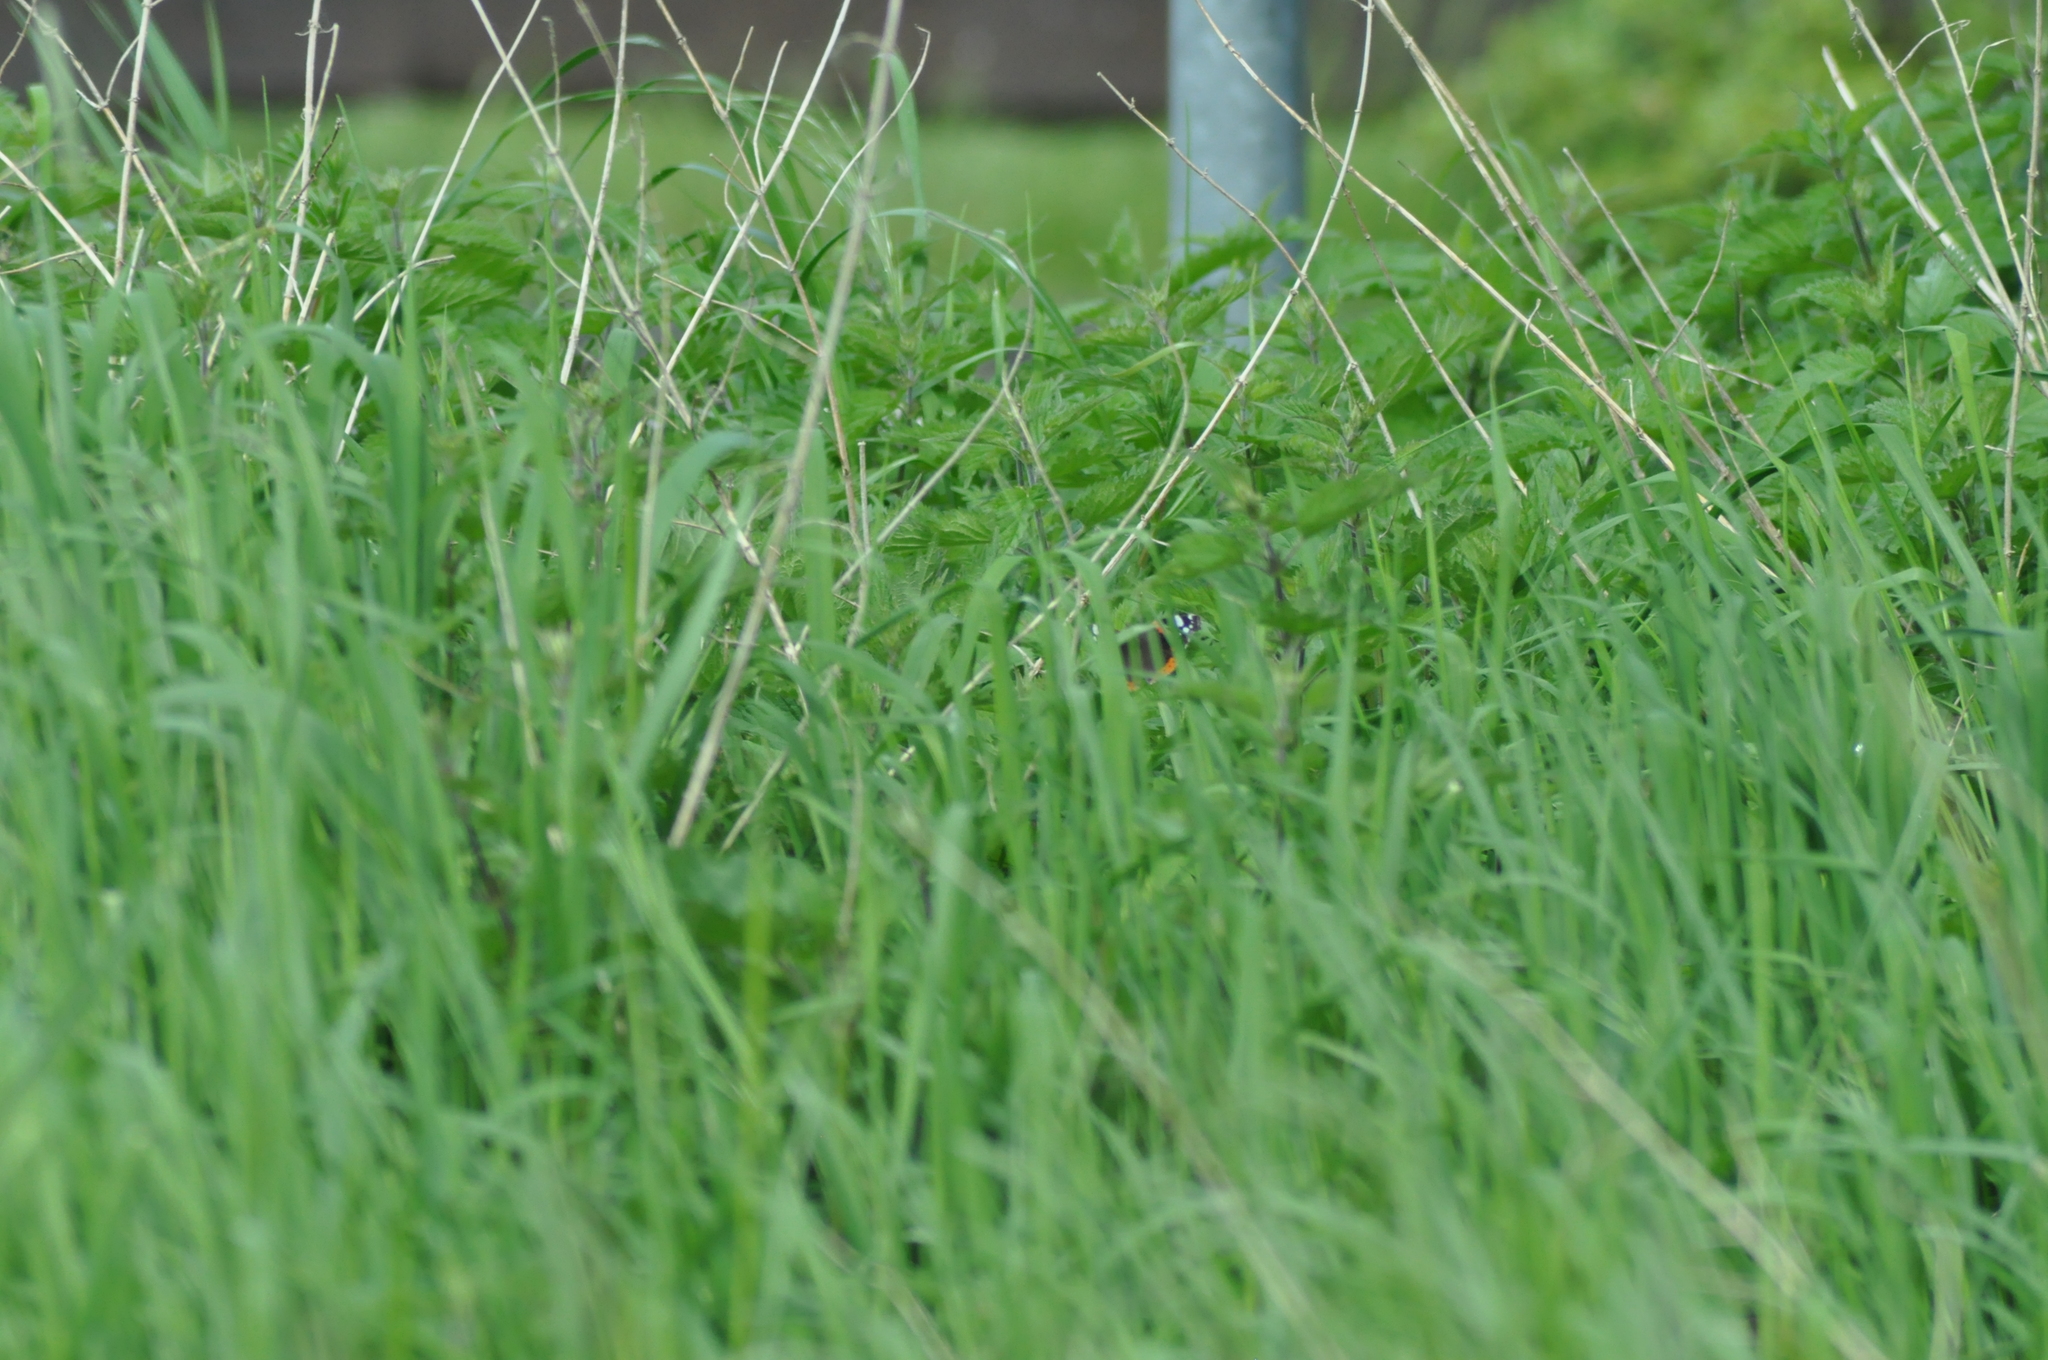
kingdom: Animalia
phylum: Arthropoda
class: Insecta
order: Lepidoptera
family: Nymphalidae
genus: Vanessa
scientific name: Vanessa atalanta
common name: Red admiral
